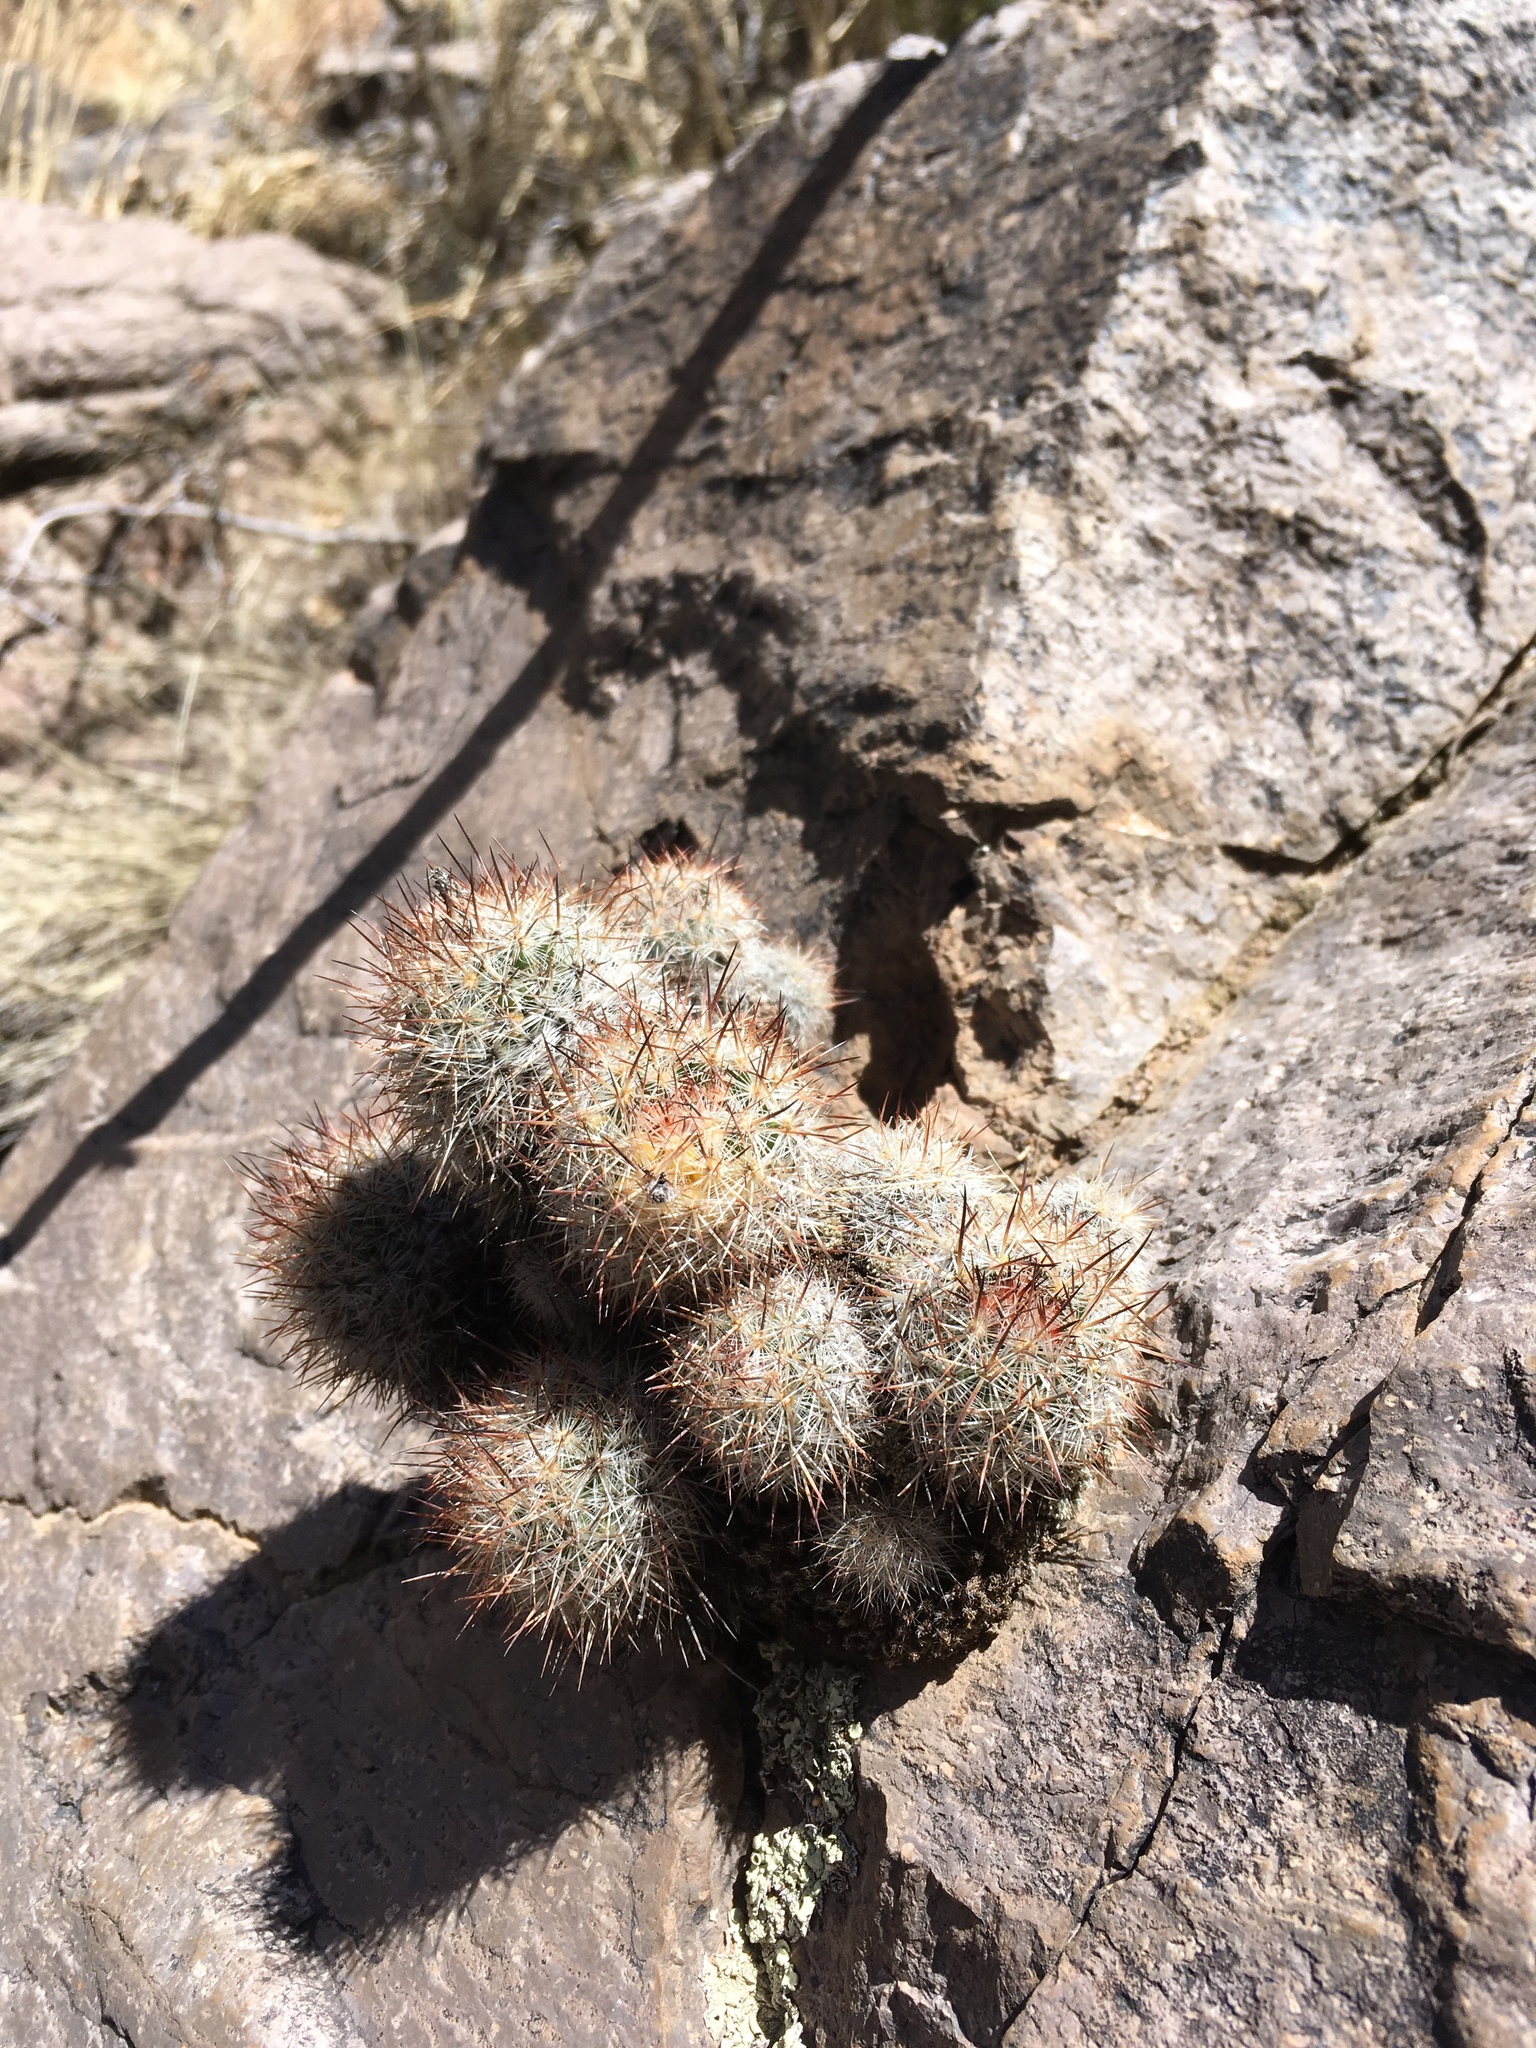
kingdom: Plantae
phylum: Tracheophyta
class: Magnoliopsida
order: Caryophyllales
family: Cactaceae
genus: Pelecyphora
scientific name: Pelecyphora sneedii
